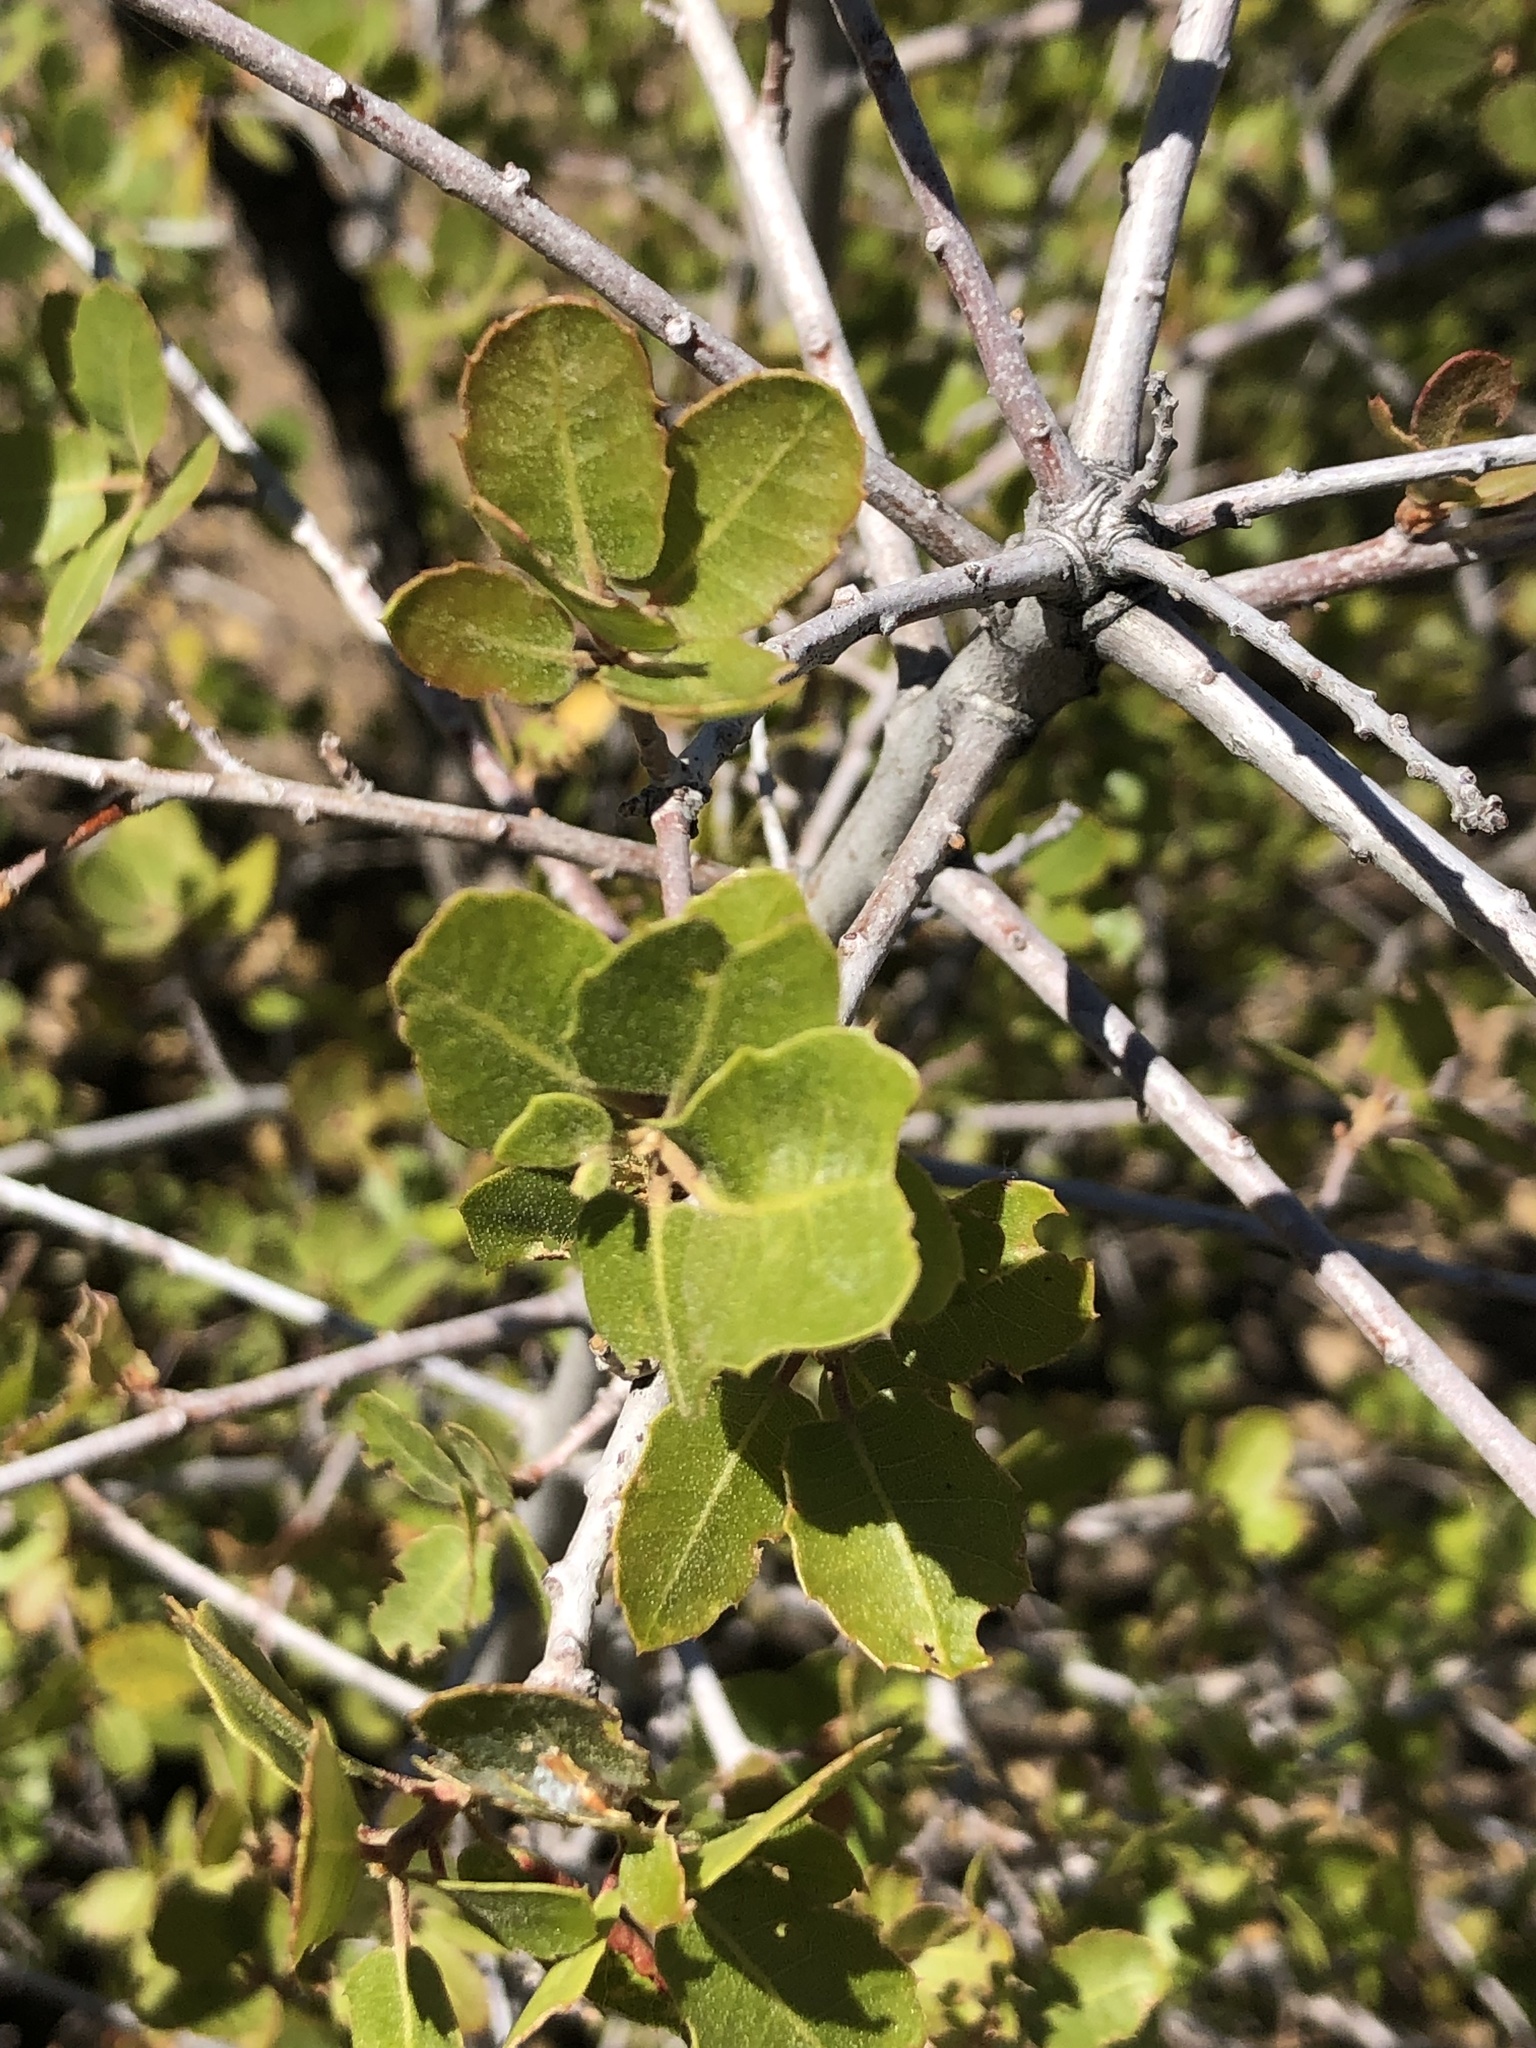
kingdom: Plantae
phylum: Tracheophyta
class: Magnoliopsida
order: Fagales
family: Fagaceae
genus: Quercus
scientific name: Quercus wislizeni
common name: Interior live oak
